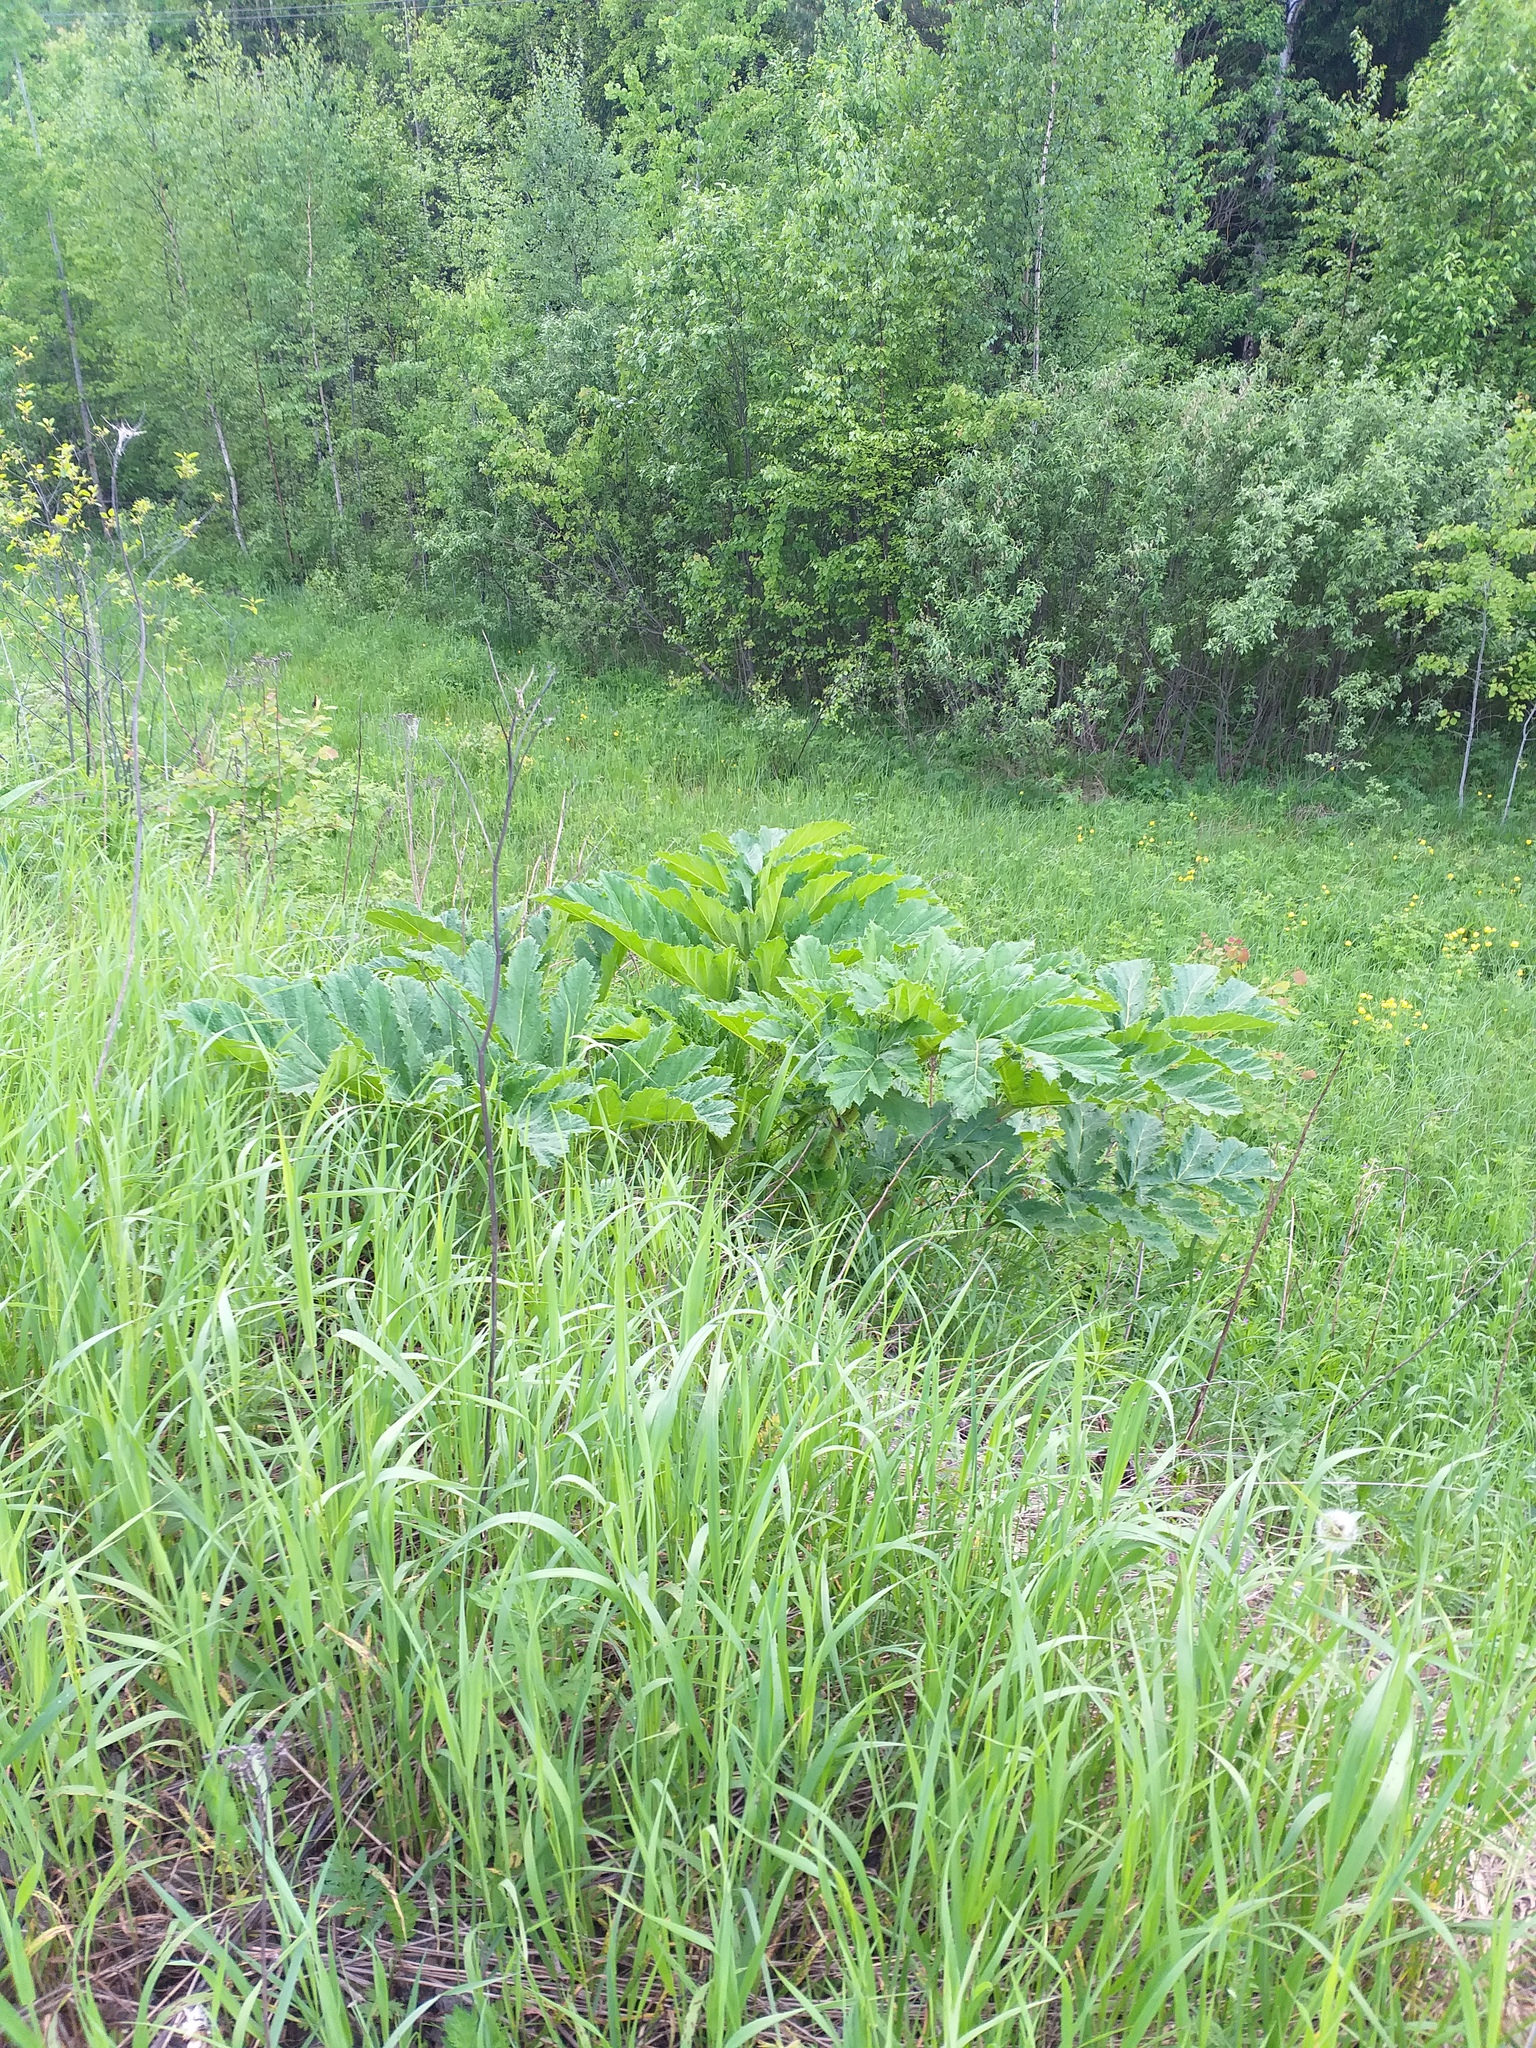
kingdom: Plantae
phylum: Tracheophyta
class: Magnoliopsida
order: Apiales
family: Apiaceae
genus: Heracleum
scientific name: Heracleum sosnowskyi
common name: Sosnowsky's hogweed
